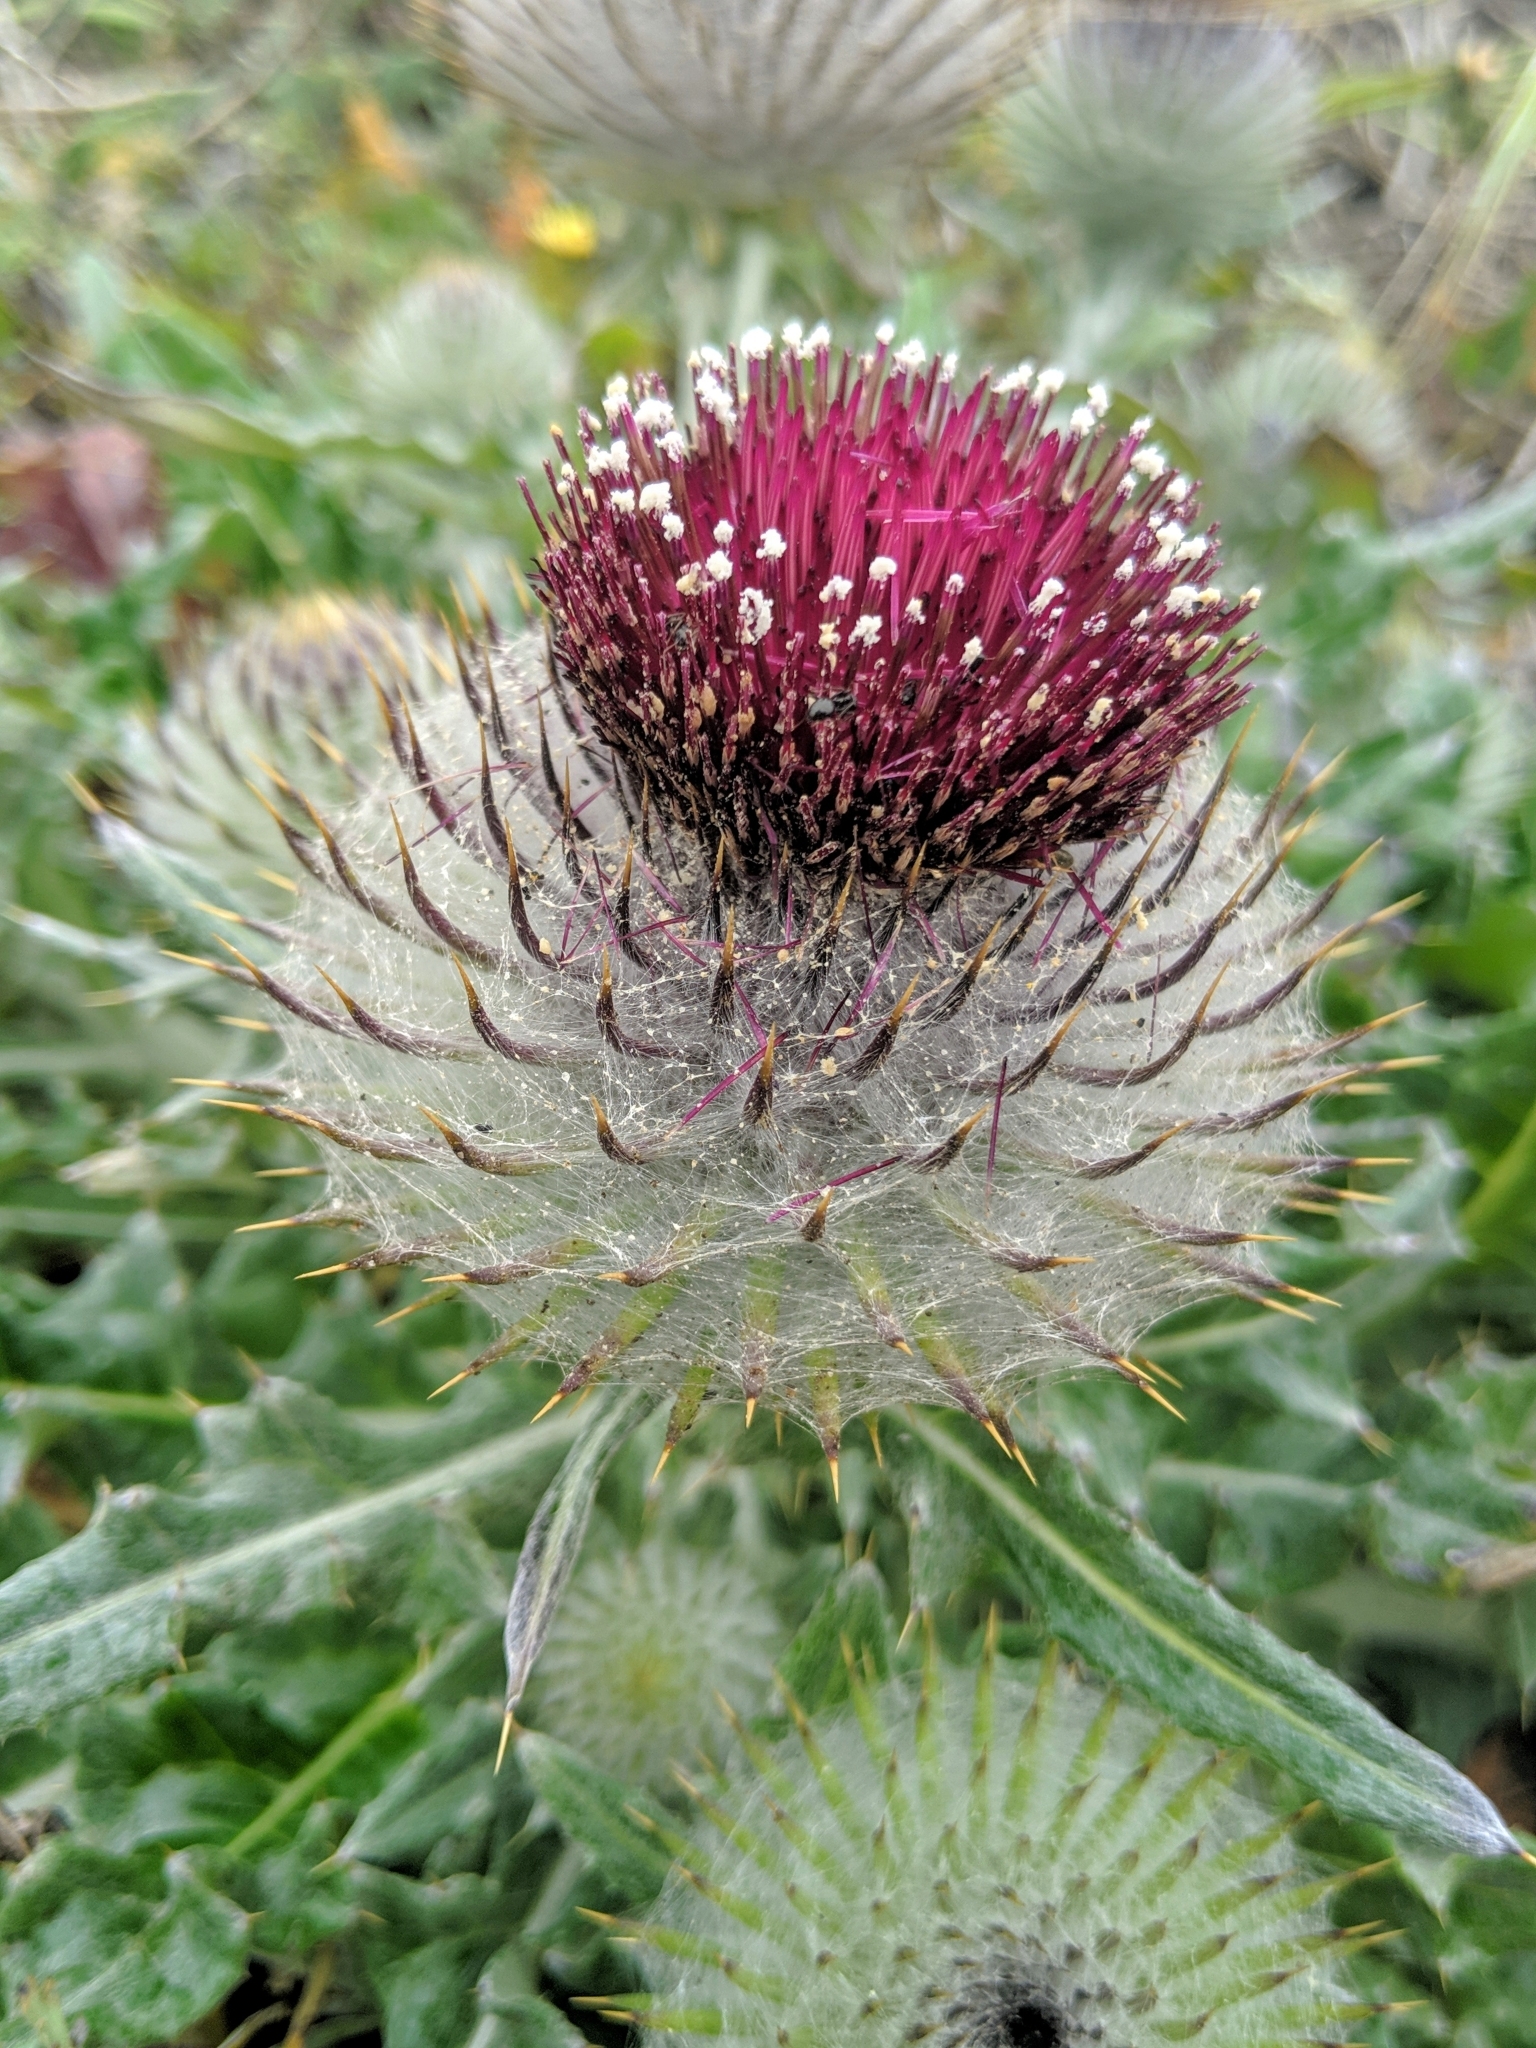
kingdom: Plantae
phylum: Tracheophyta
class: Magnoliopsida
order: Asterales
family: Asteraceae
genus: Cirsium
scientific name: Cirsium occidentale
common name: Western thistle
